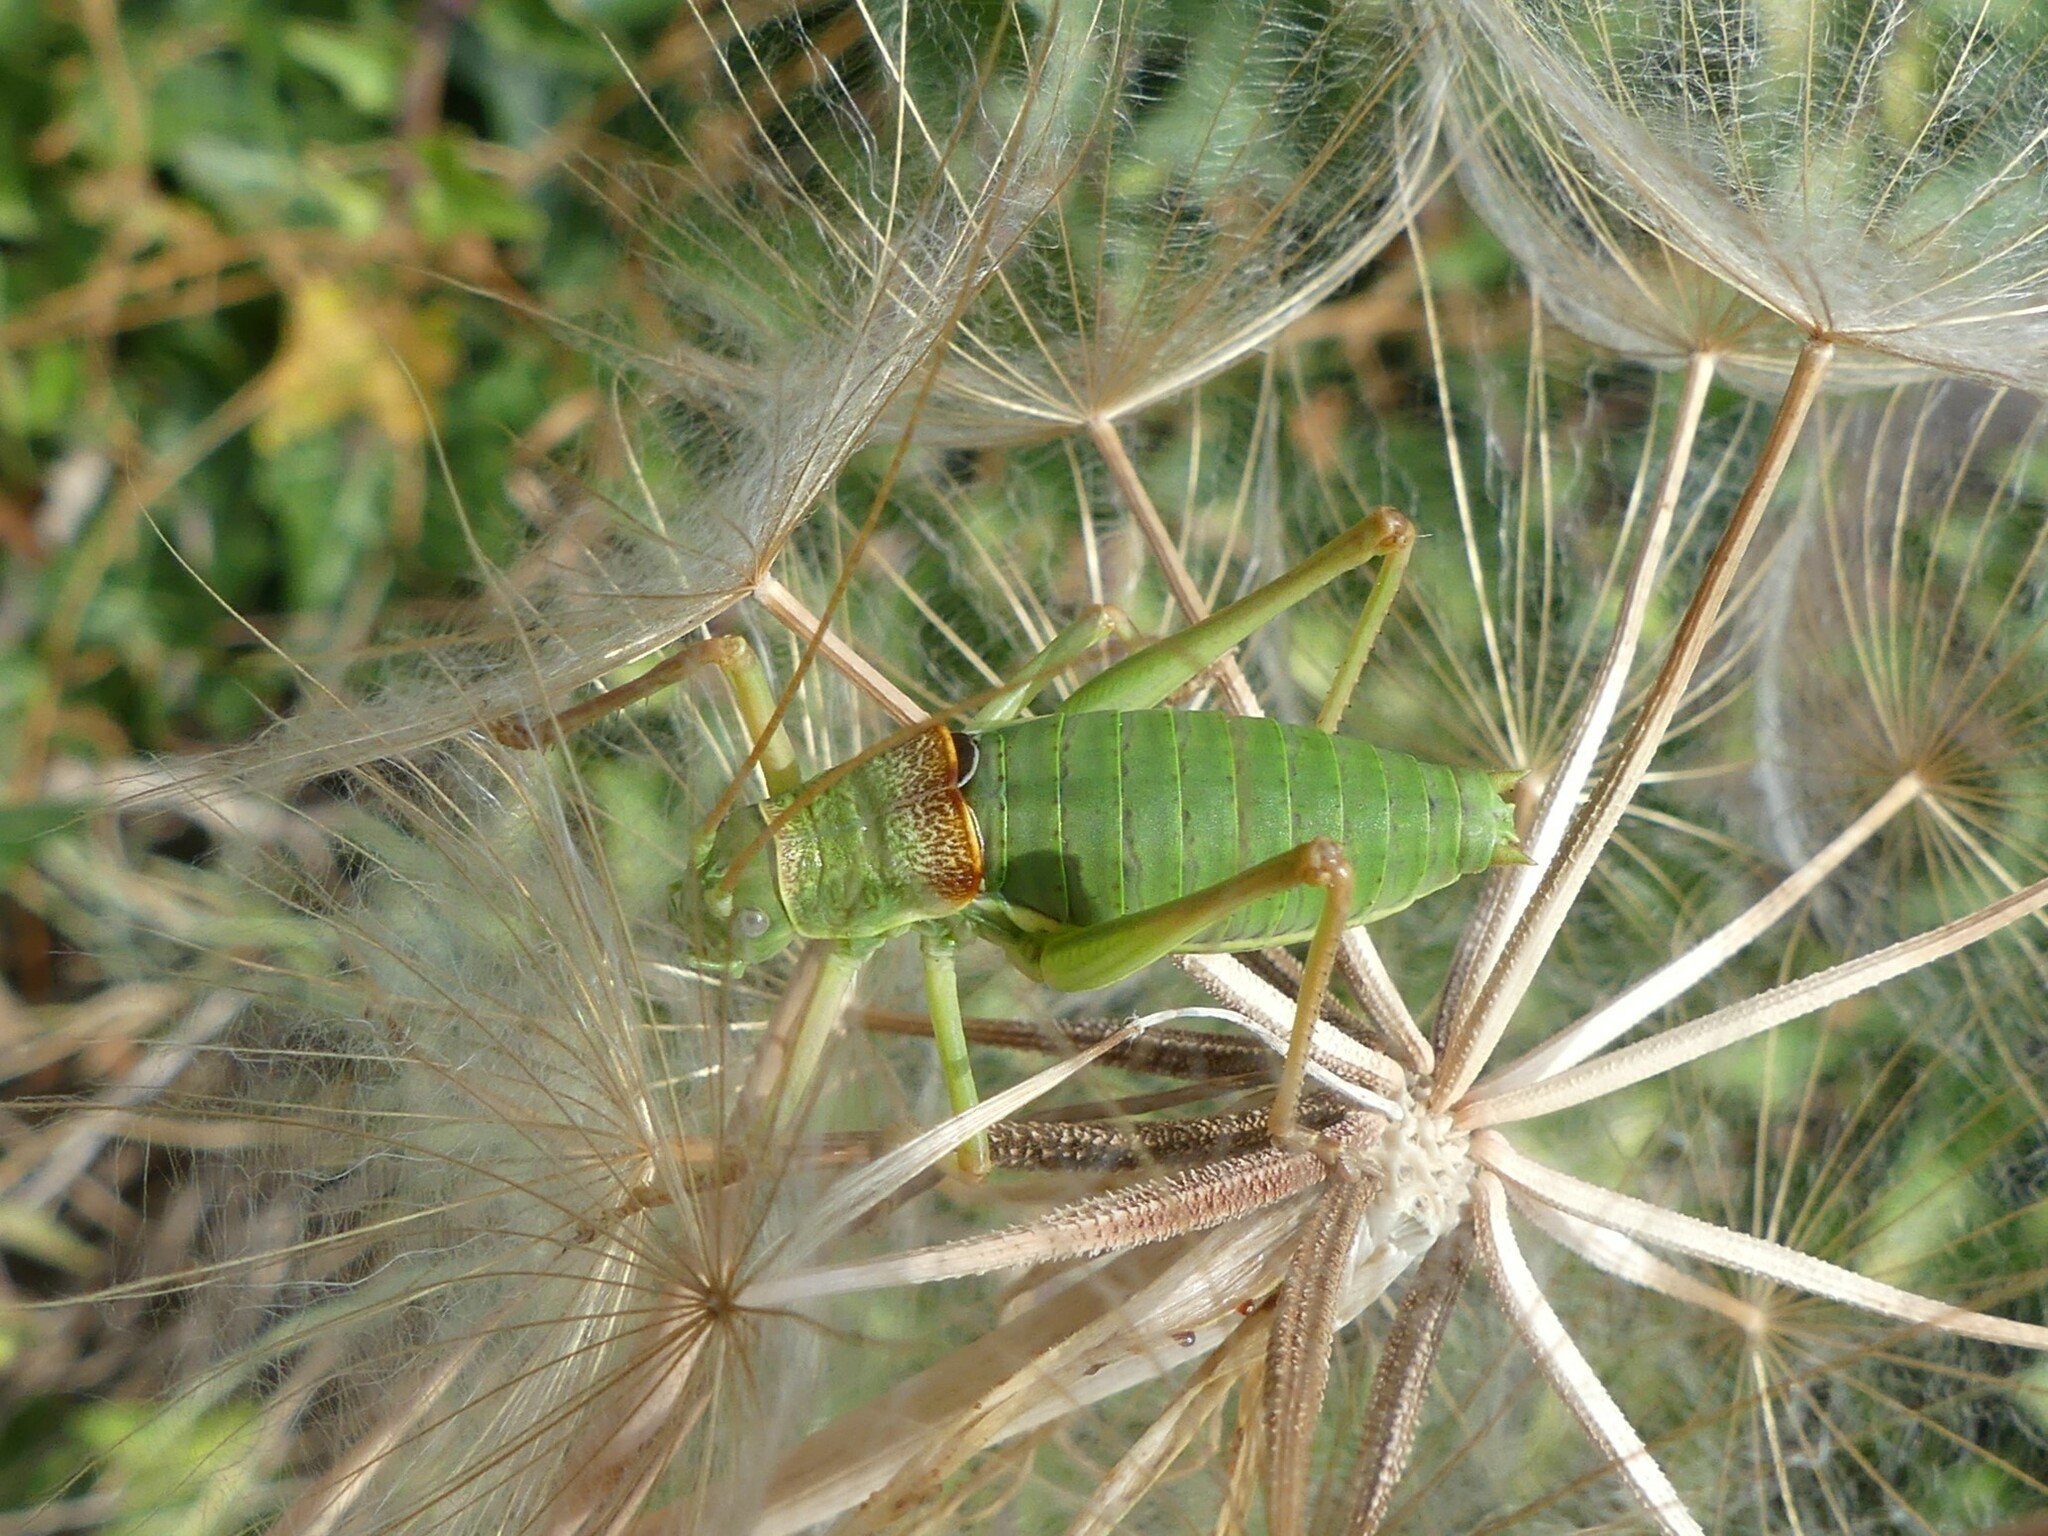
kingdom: Animalia
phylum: Arthropoda
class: Insecta
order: Orthoptera
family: Tettigoniidae
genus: Ephippiger
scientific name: Ephippiger diurnus
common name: Western saddle bush-cricket
